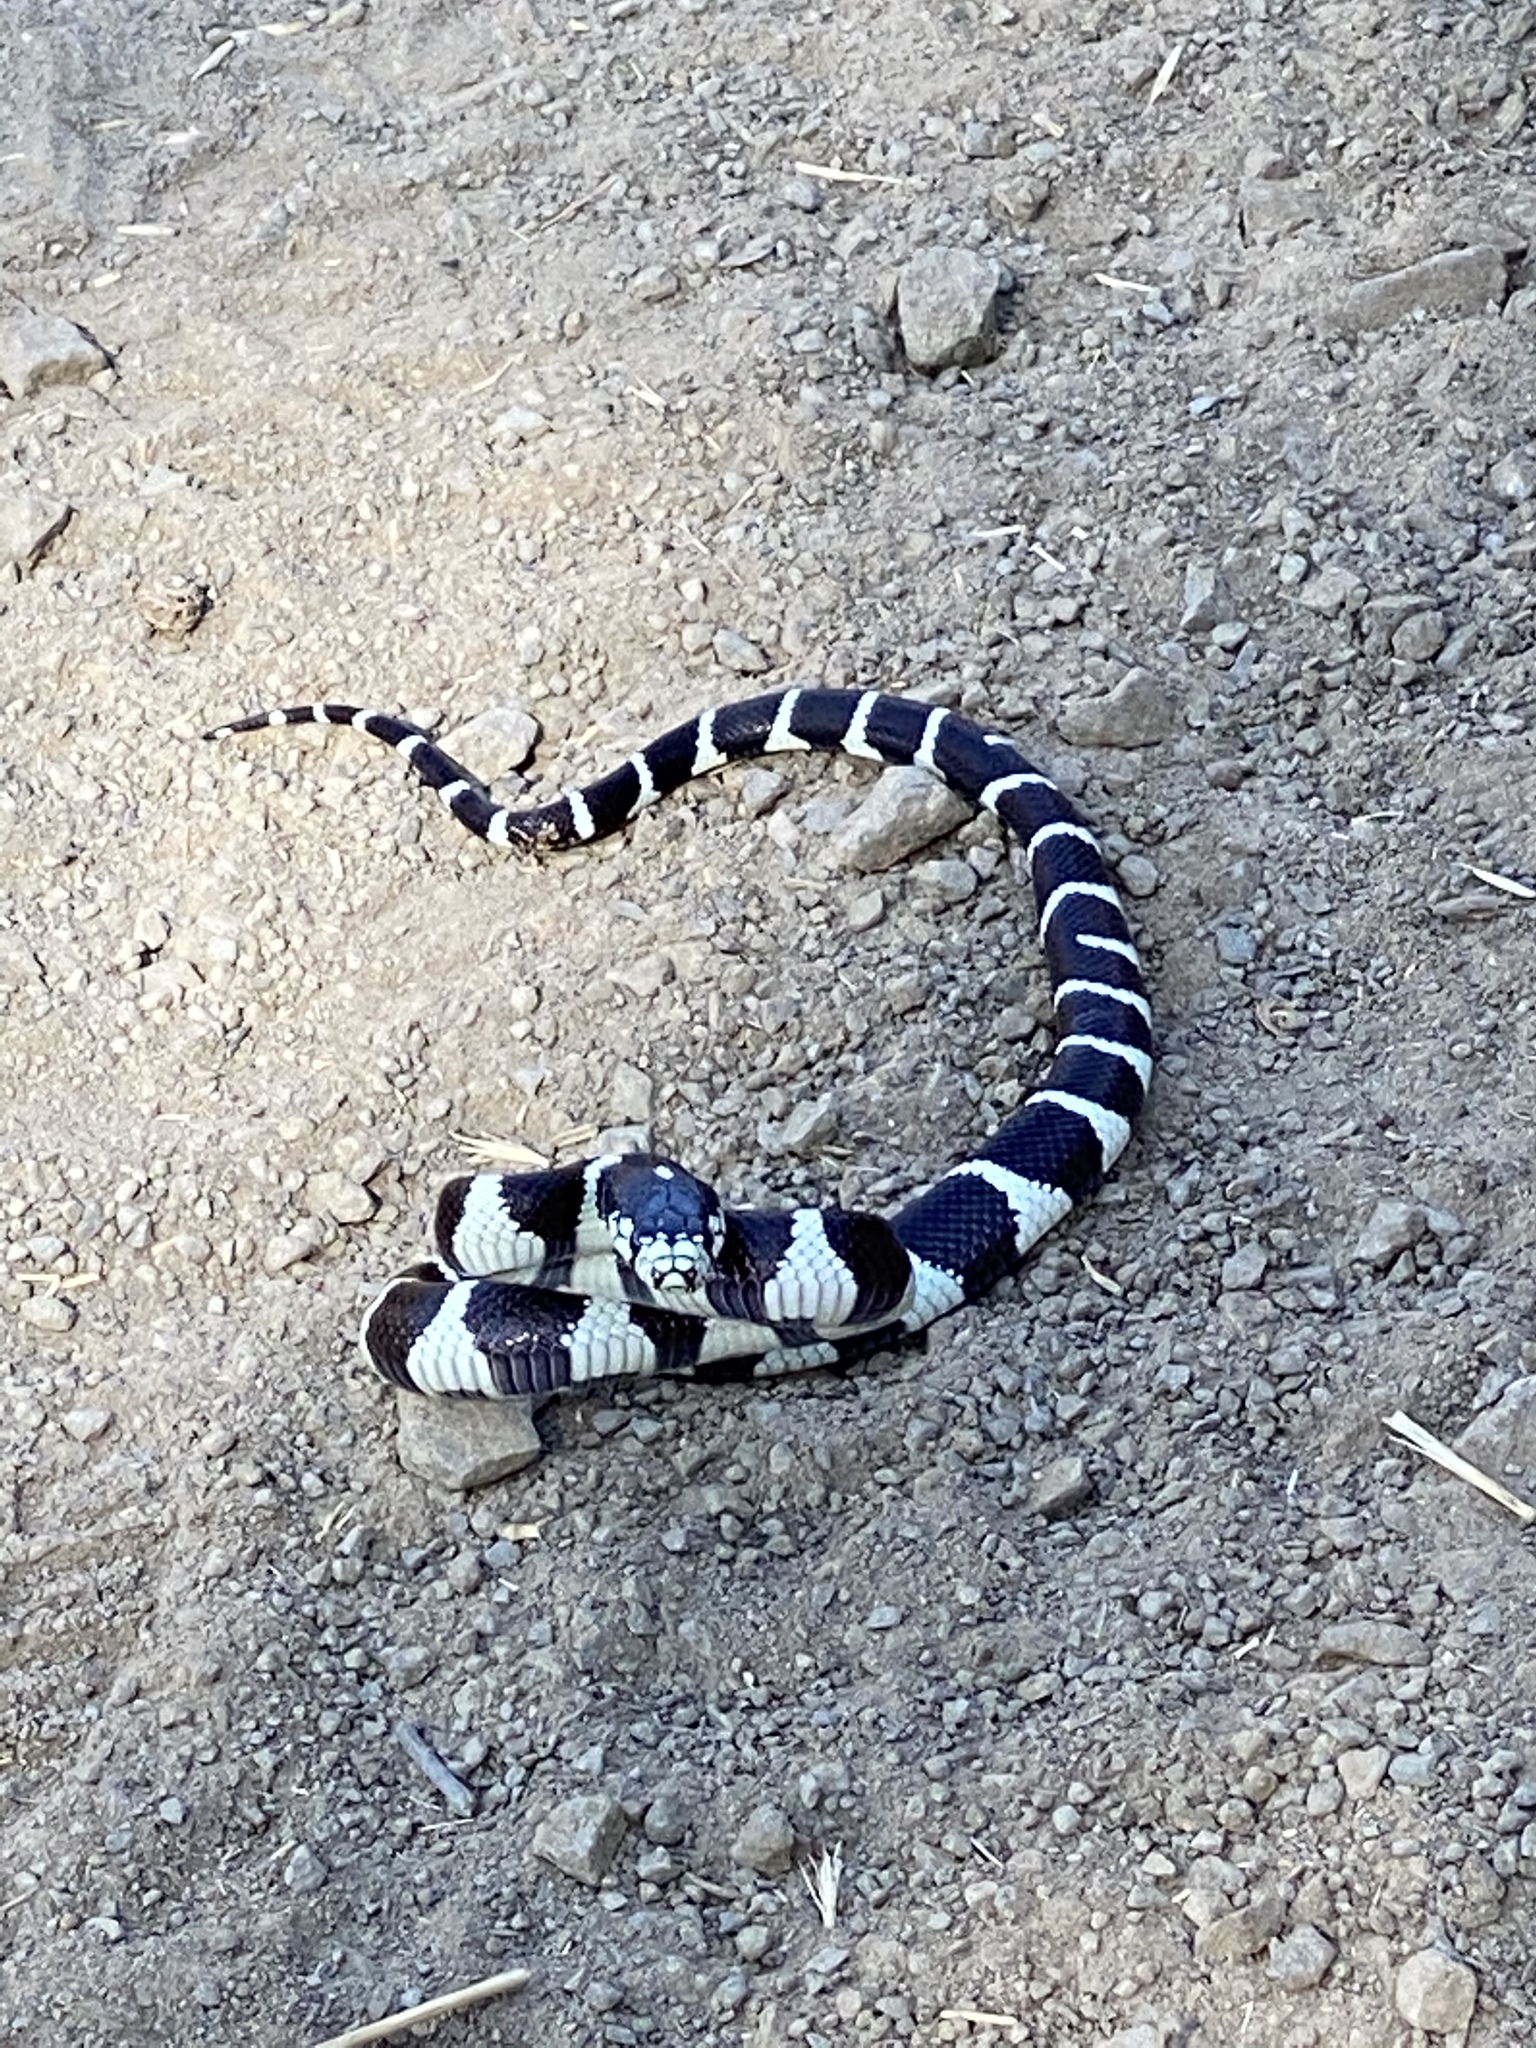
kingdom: Animalia
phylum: Chordata
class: Squamata
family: Colubridae
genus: Lampropeltis
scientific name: Lampropeltis californiae
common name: California kingsnake
